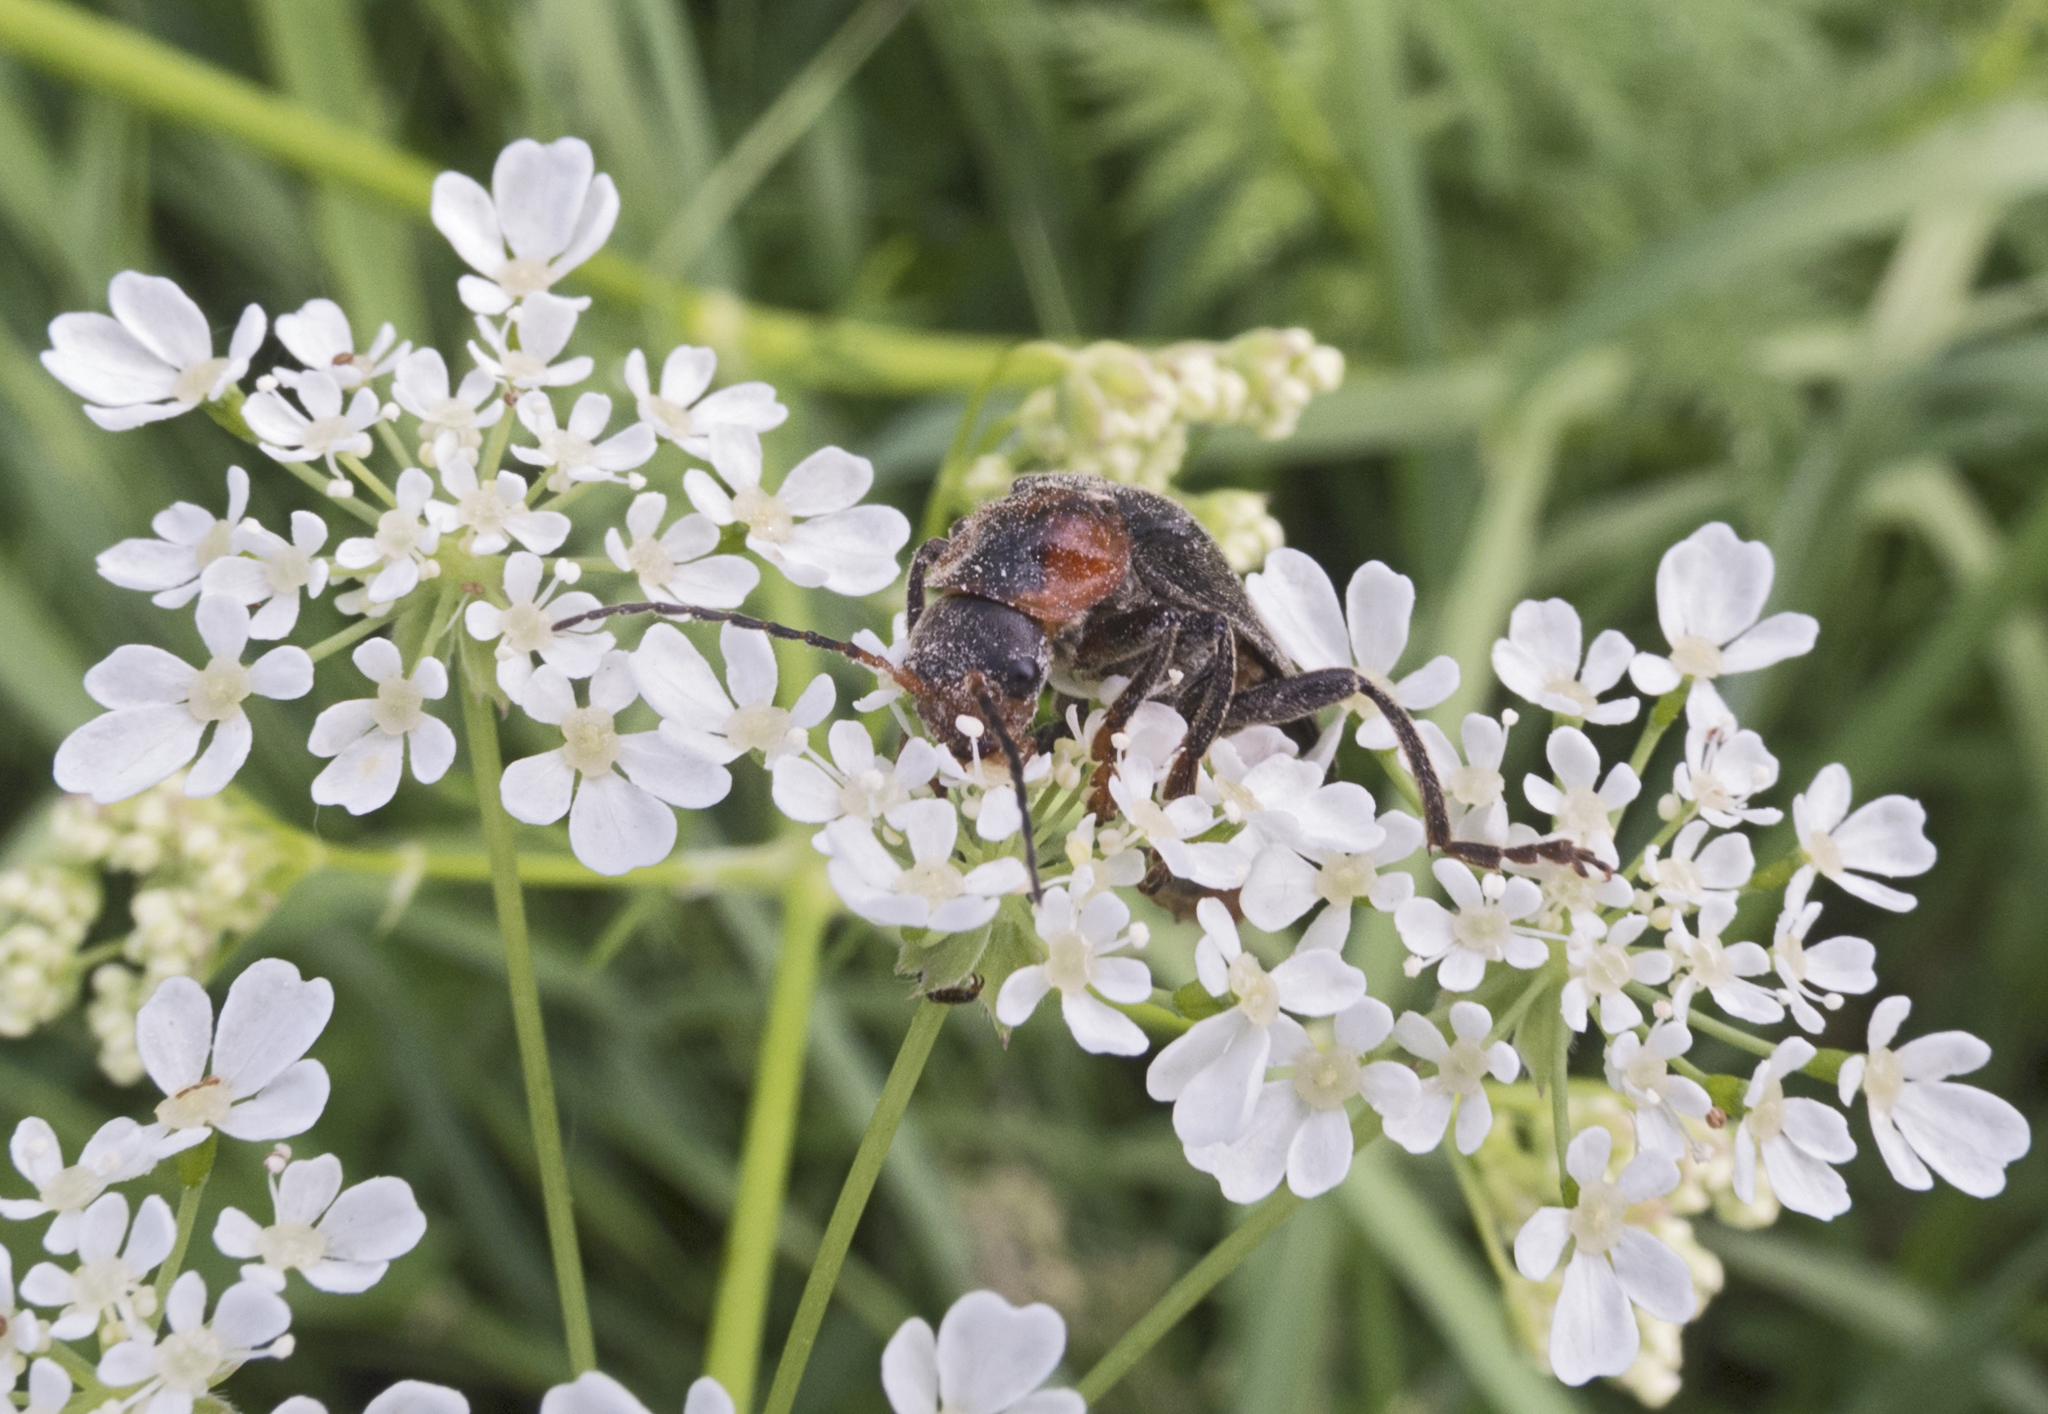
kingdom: Animalia
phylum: Arthropoda
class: Insecta
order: Coleoptera
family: Cantharidae
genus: Cantharis
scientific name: Cantharis fusca
